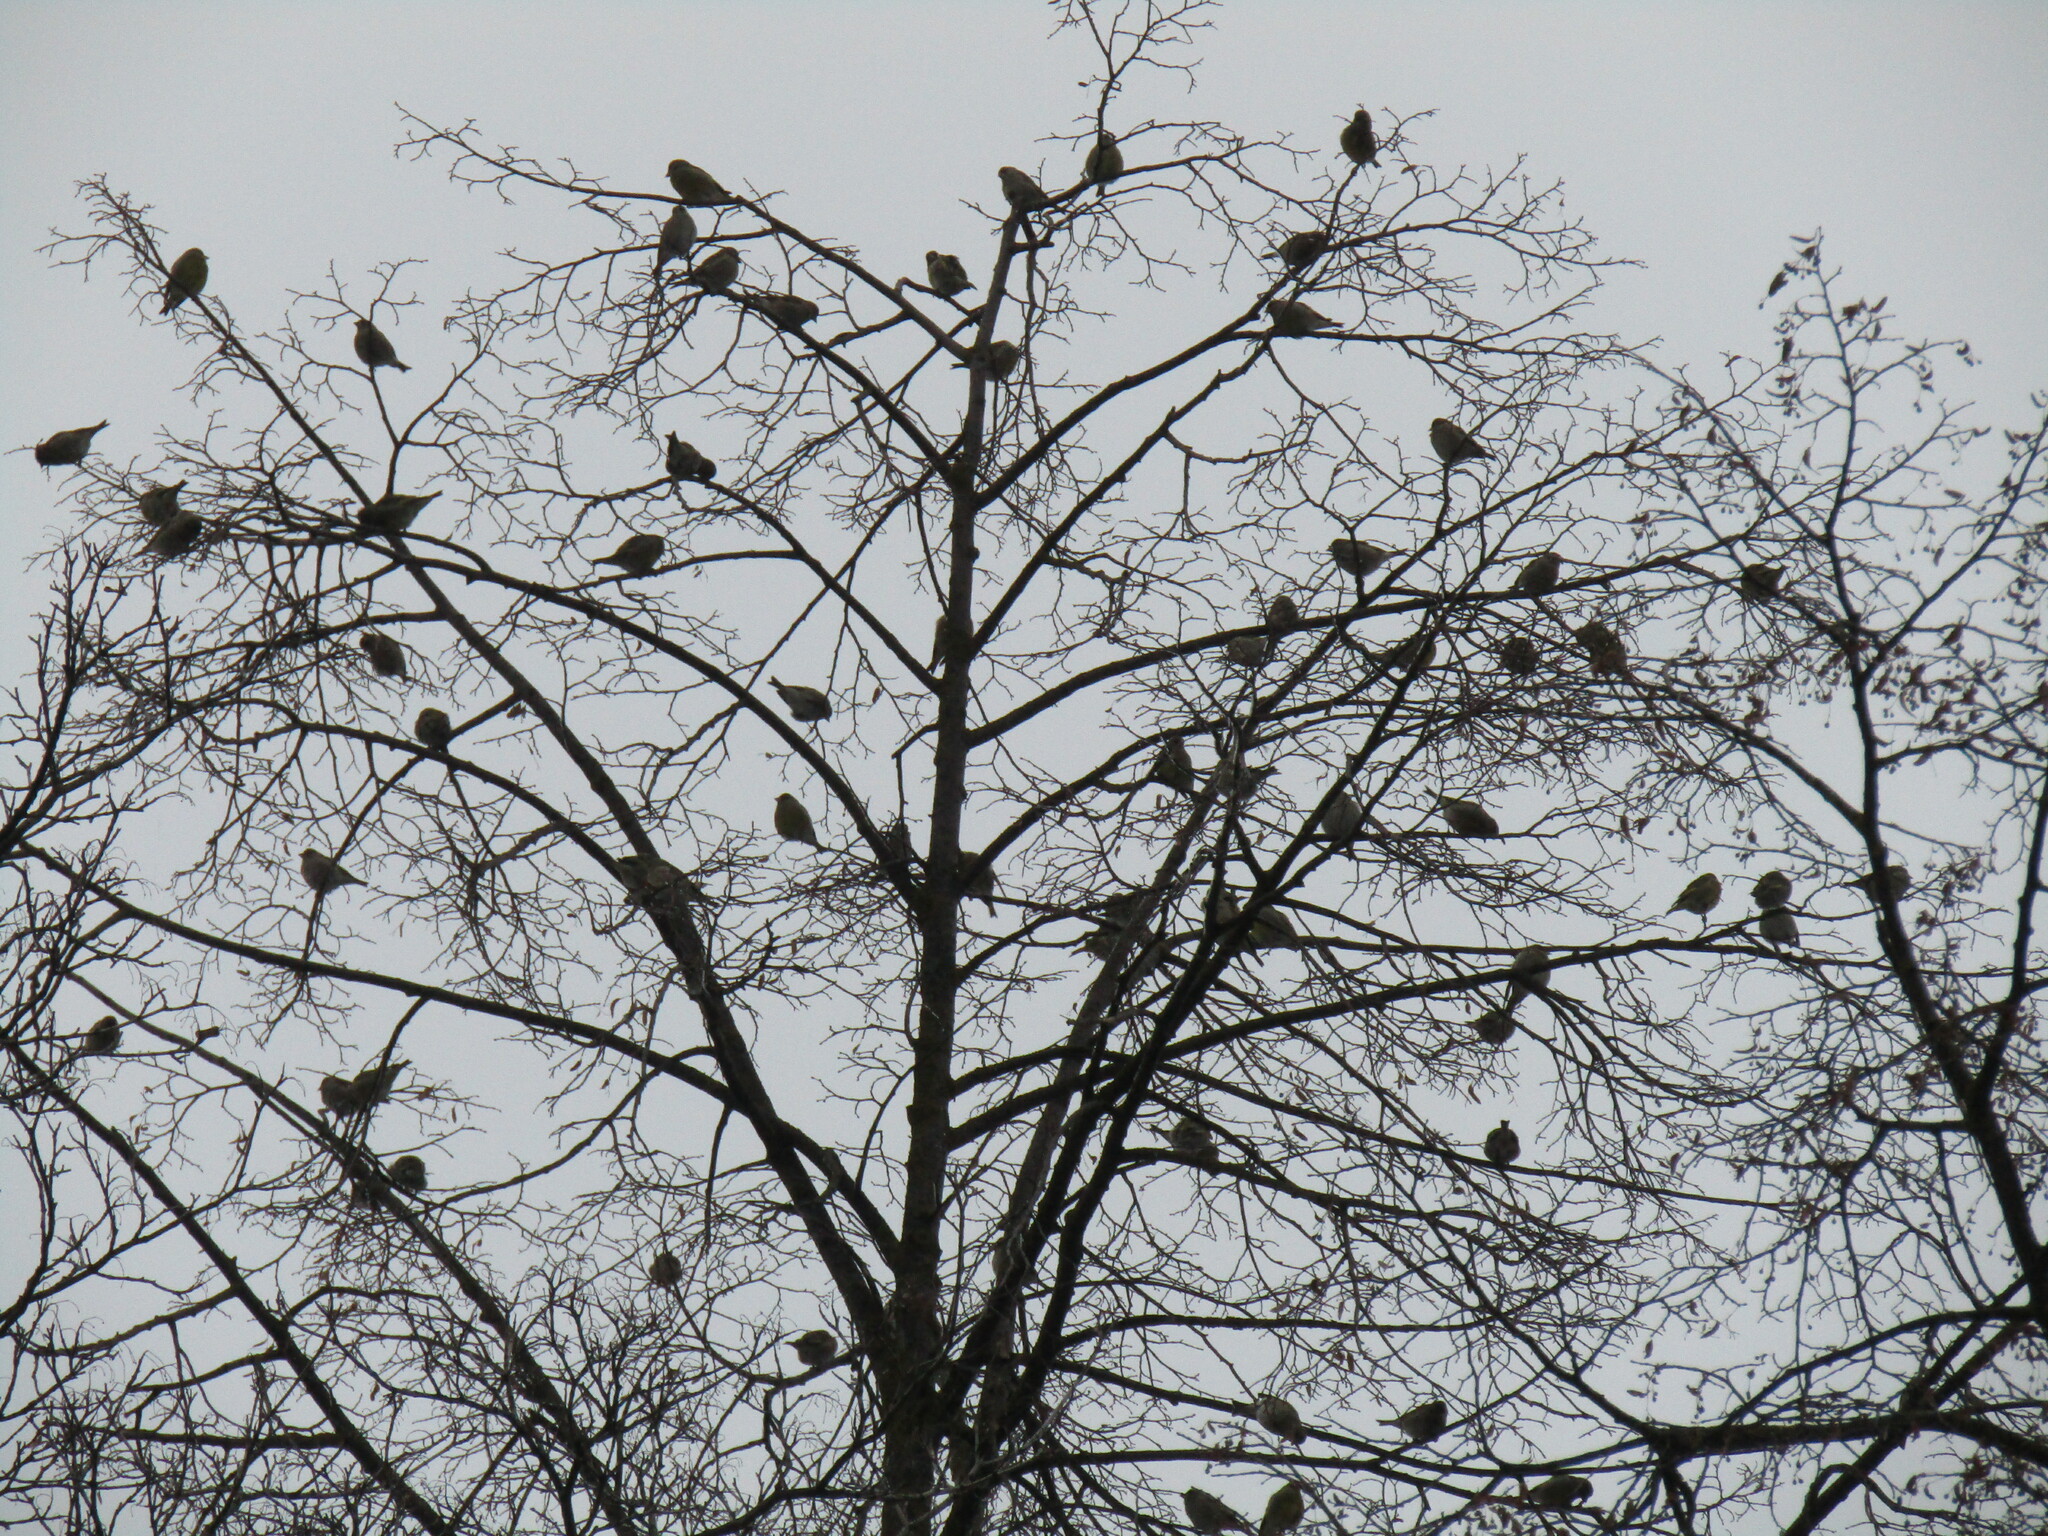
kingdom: Plantae
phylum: Tracheophyta
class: Liliopsida
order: Poales
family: Poaceae
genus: Chloris
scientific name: Chloris chloris
